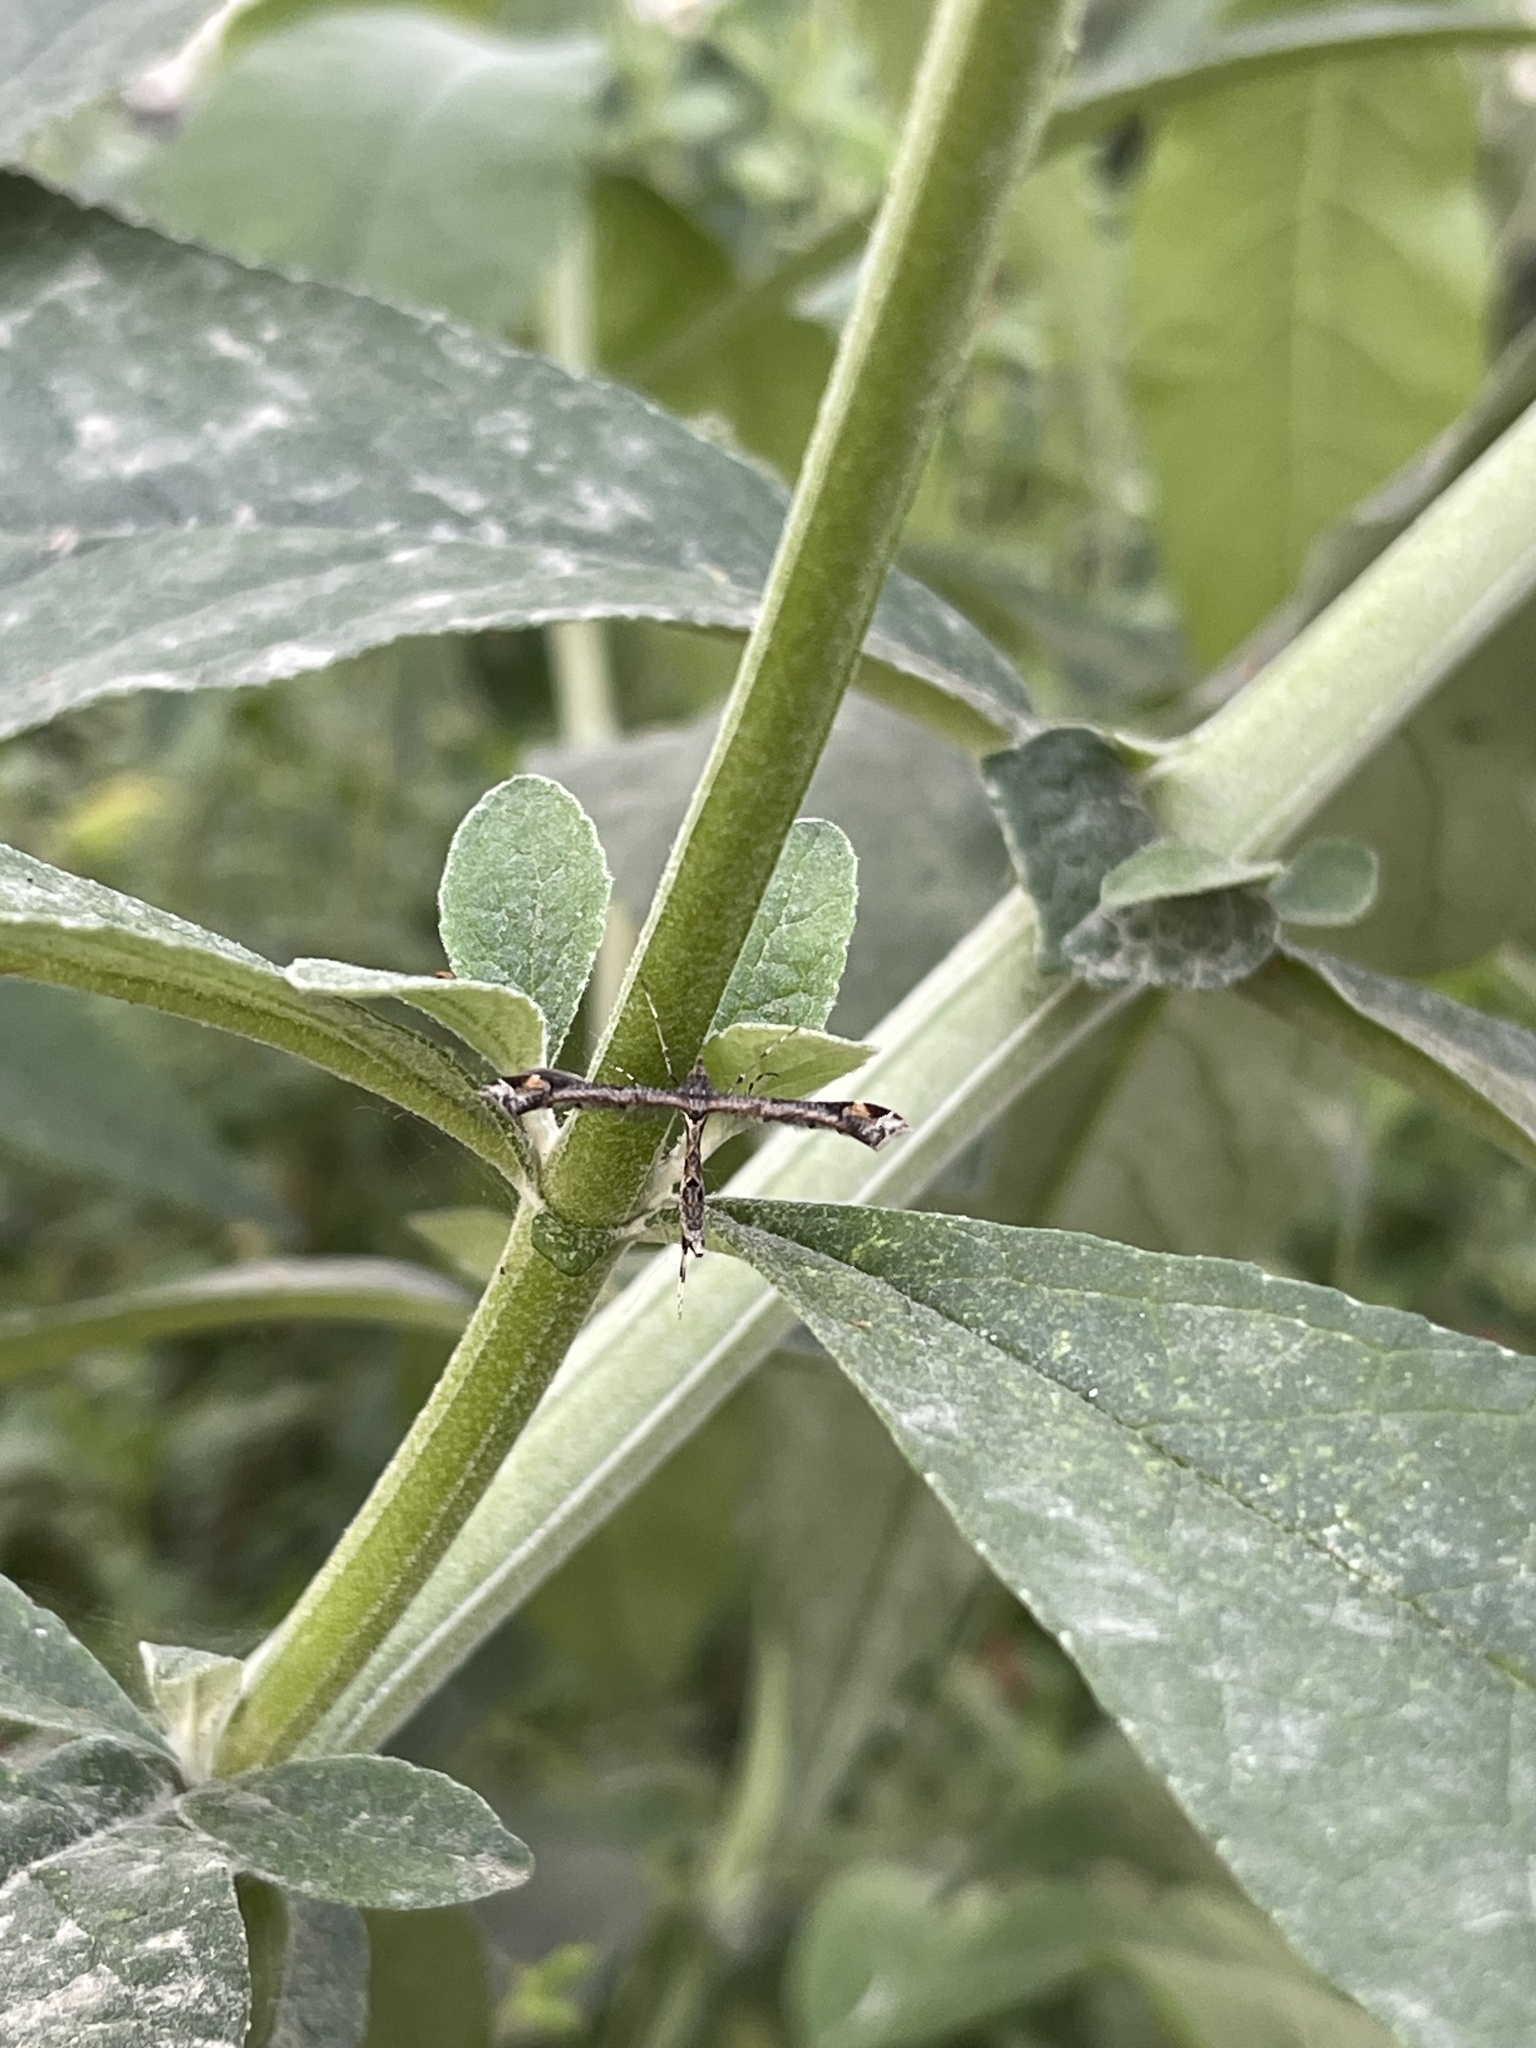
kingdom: Animalia
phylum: Arthropoda
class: Insecta
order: Lepidoptera
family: Pterophoridae
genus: Anstenoptilia
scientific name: Anstenoptilia marmarodactyla
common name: Moth
